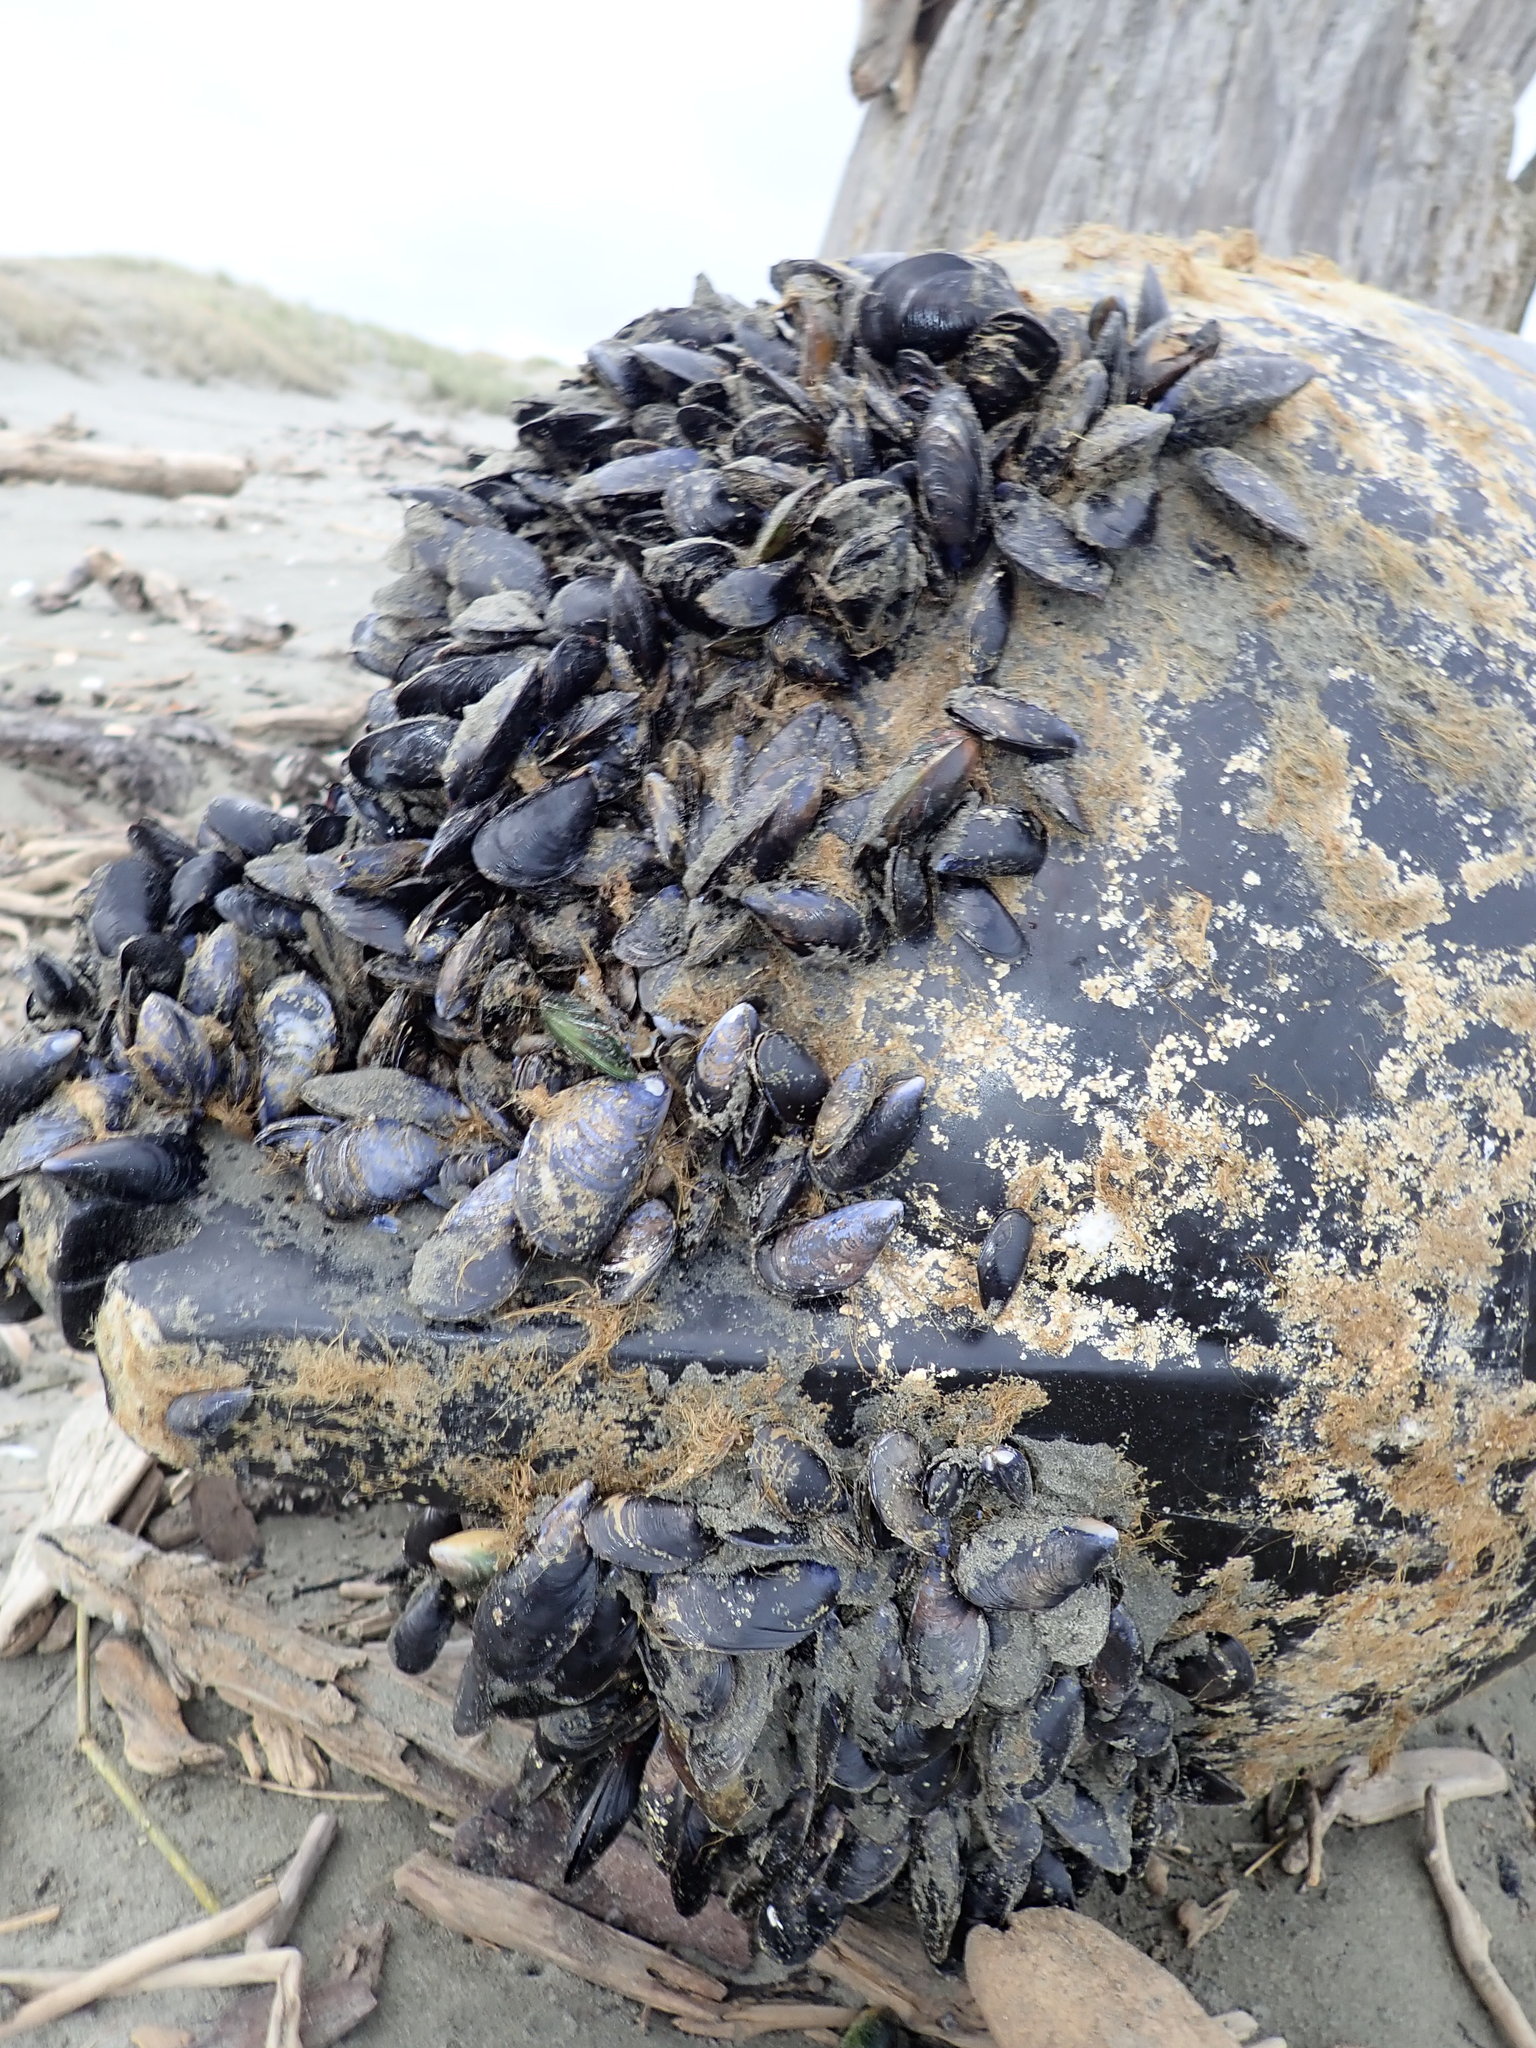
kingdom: Animalia
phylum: Mollusca
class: Bivalvia
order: Mytilida
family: Mytilidae
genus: Perna
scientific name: Perna canaliculus
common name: New zealand greenshelltm
